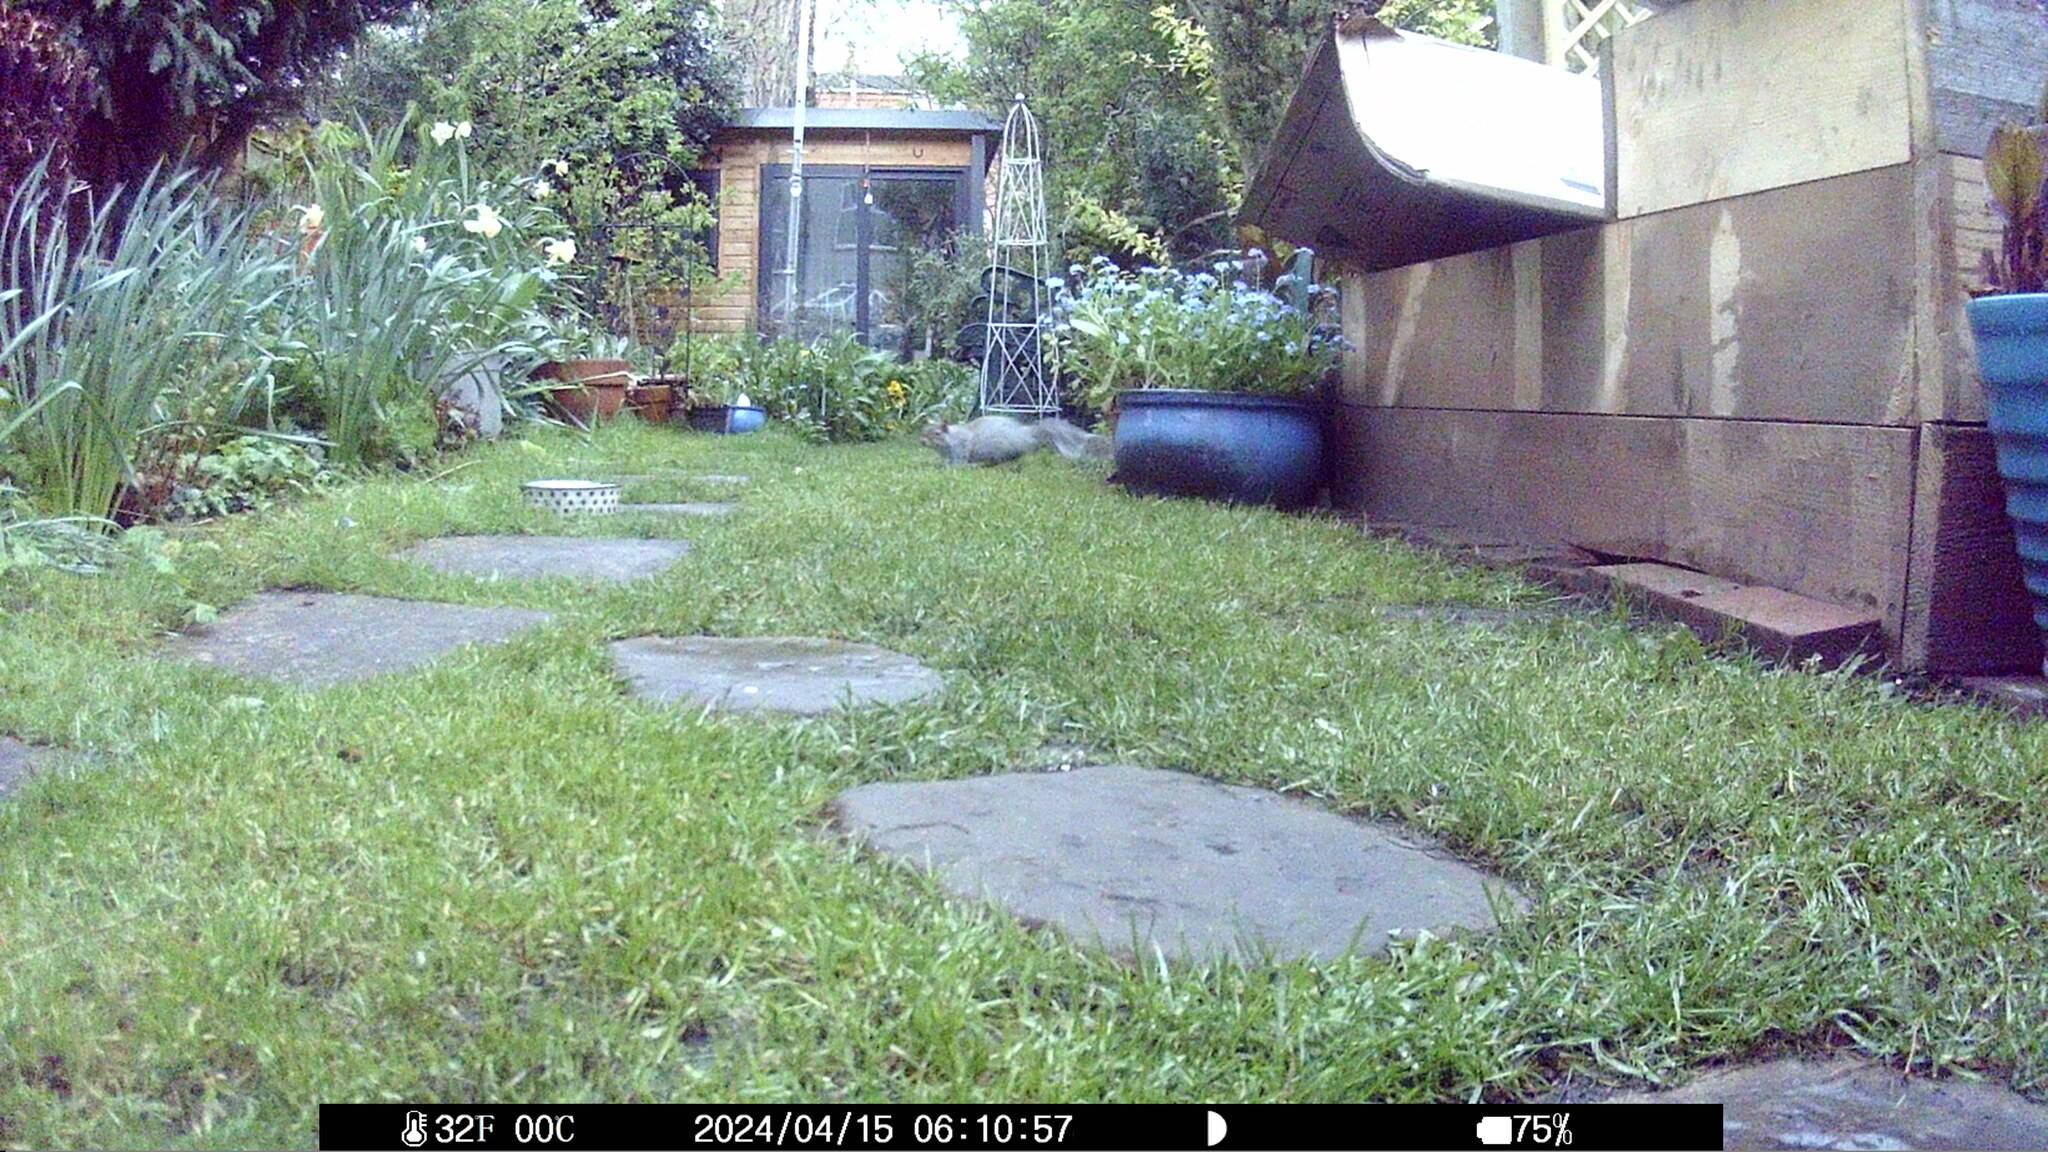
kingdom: Animalia
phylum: Chordata
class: Mammalia
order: Rodentia
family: Sciuridae
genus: Sciurus
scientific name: Sciurus carolinensis
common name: Eastern gray squirrel
